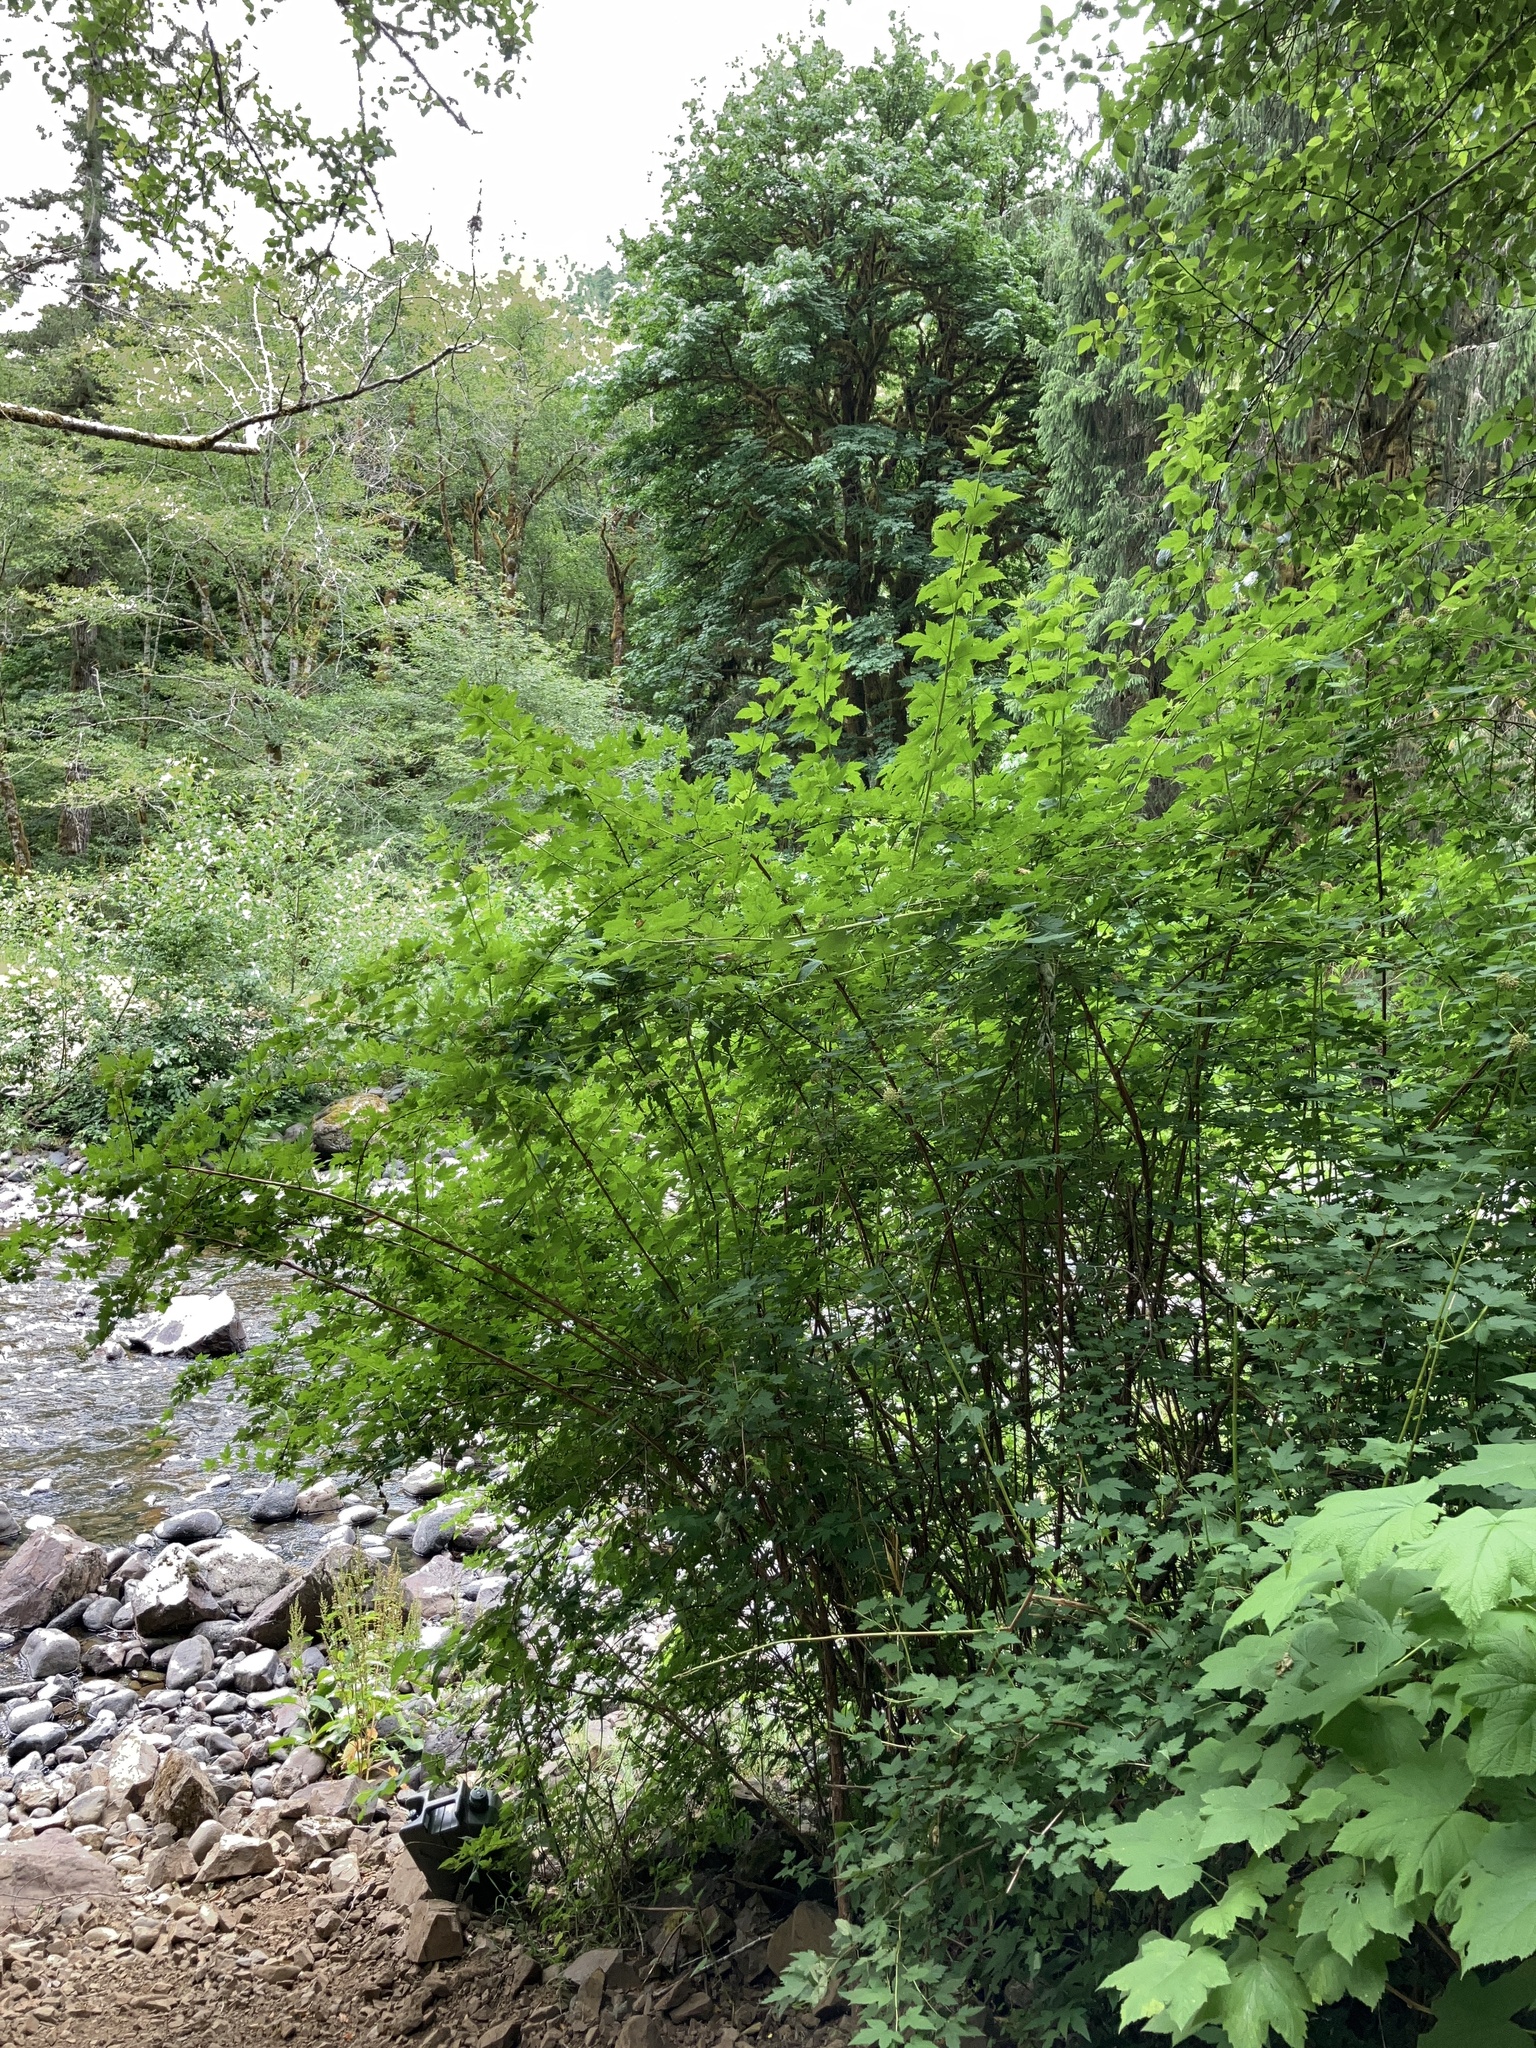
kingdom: Plantae
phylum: Tracheophyta
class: Magnoliopsida
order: Rosales
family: Rosaceae
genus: Physocarpus
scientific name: Physocarpus capitatus
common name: Pacific ninebark
